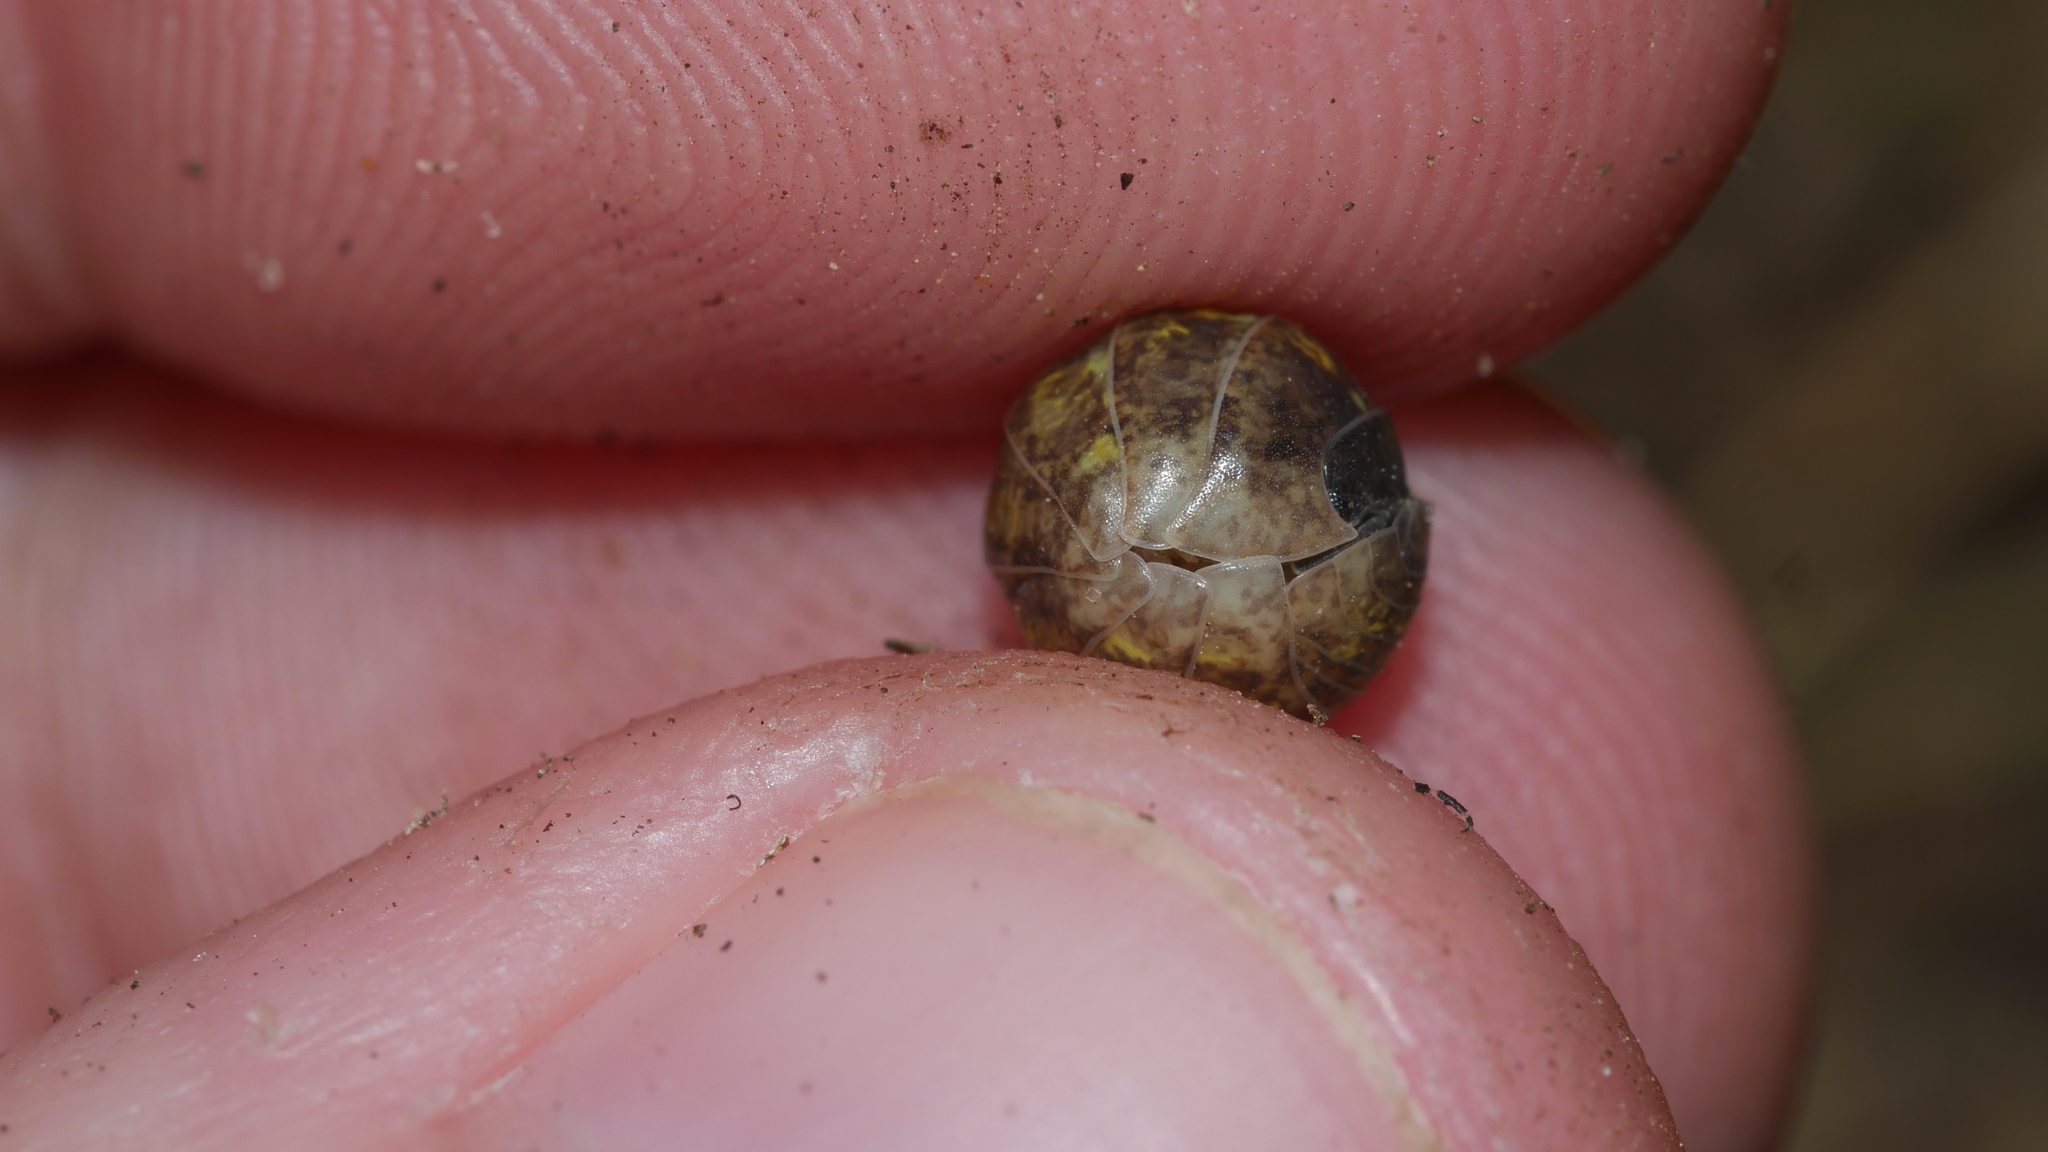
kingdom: Animalia
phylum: Arthropoda
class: Malacostraca
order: Isopoda
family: Armadillidiidae
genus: Armadillidium
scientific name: Armadillidium vulgare
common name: Common pill woodlouse
